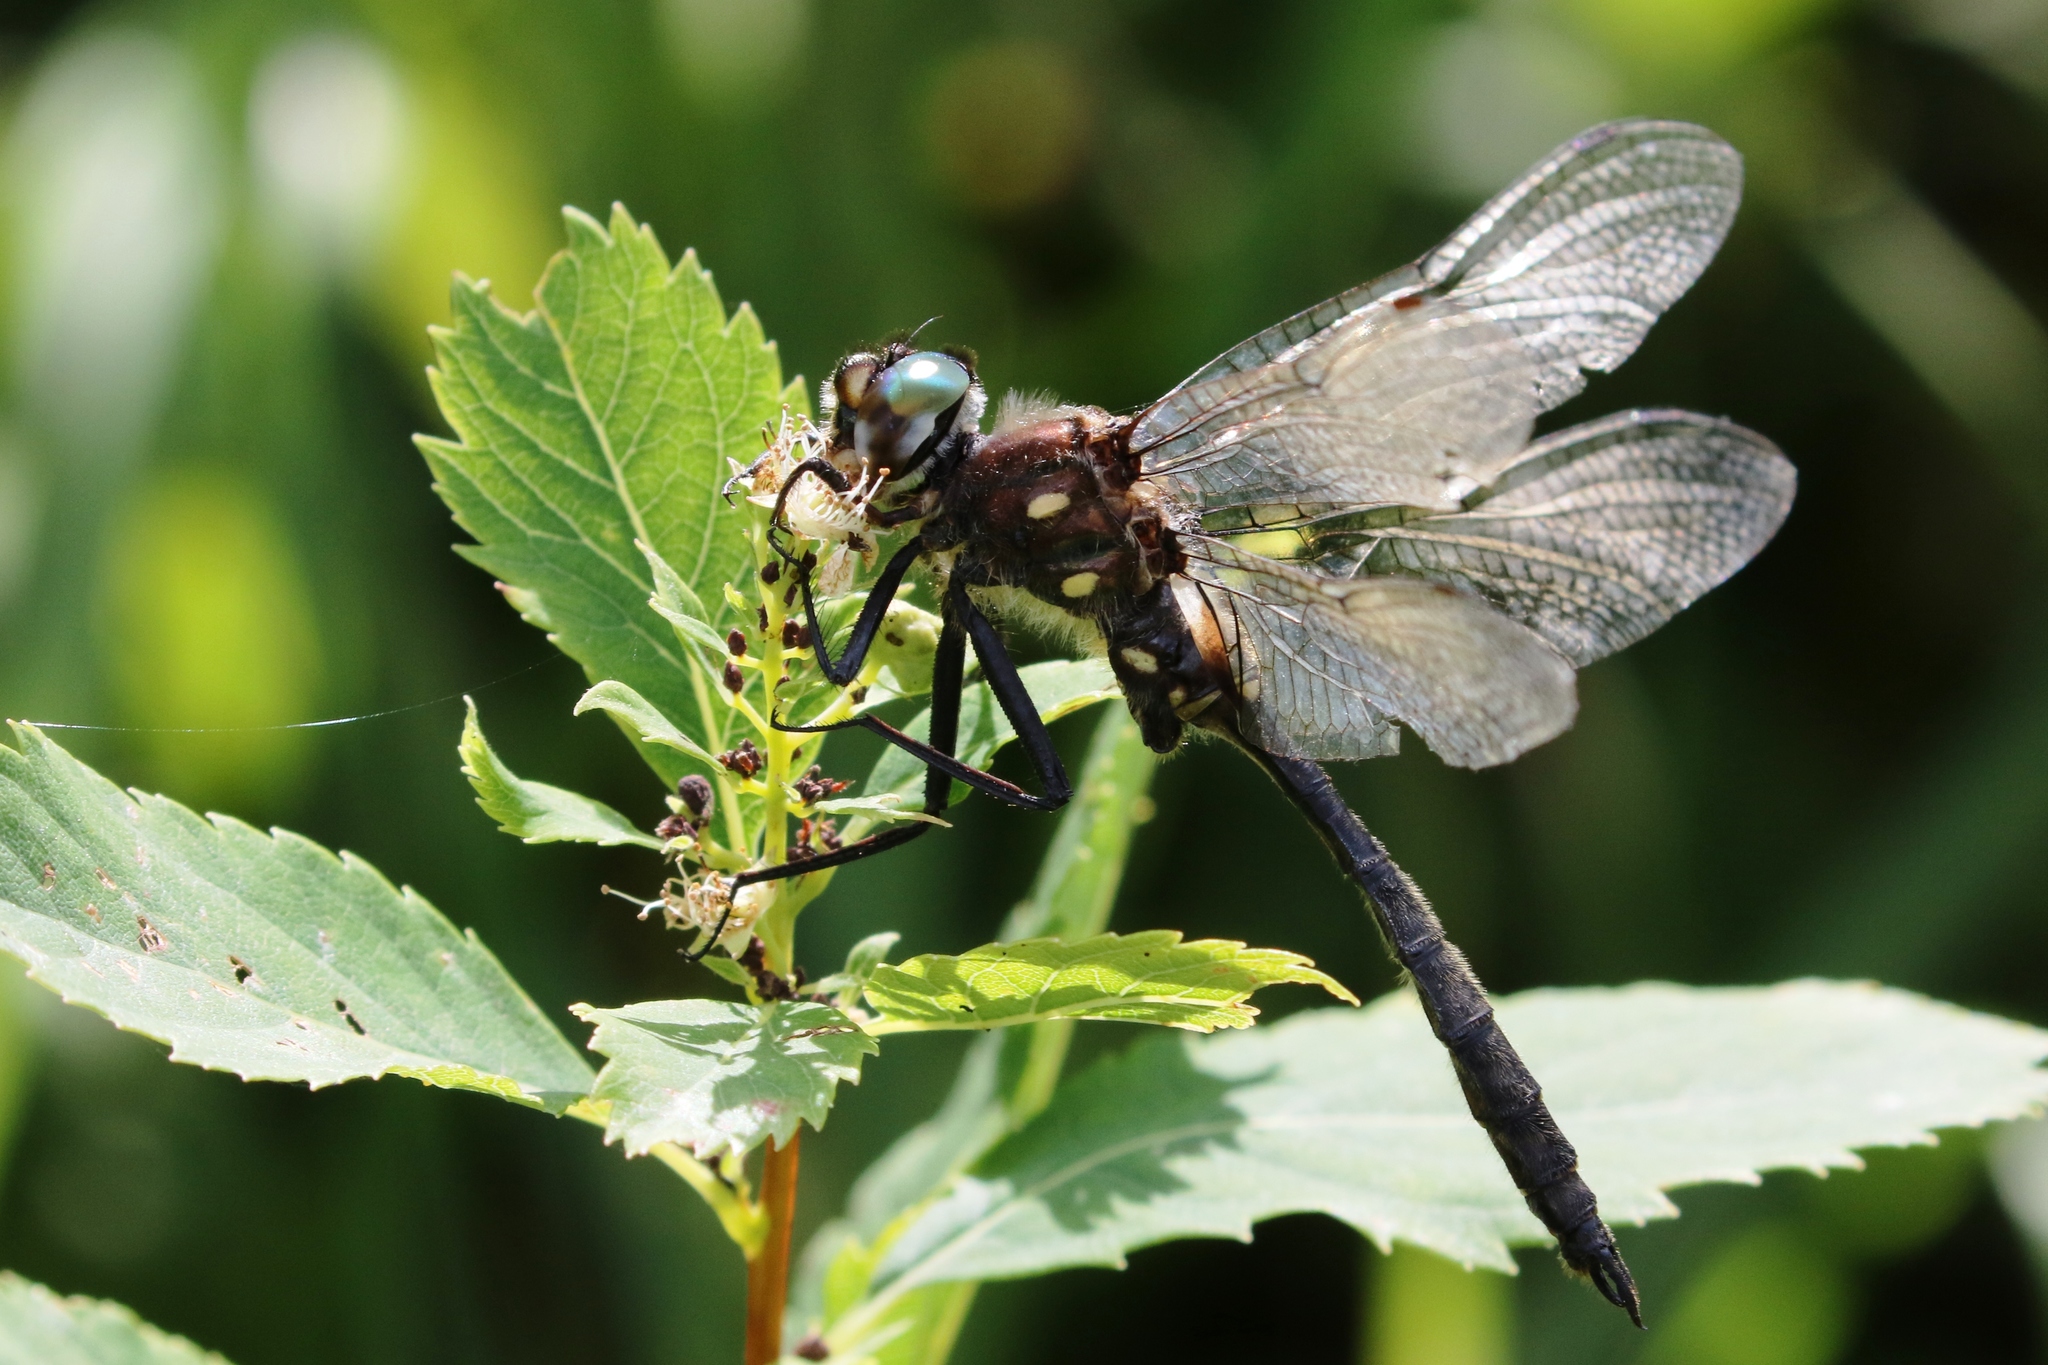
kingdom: Animalia
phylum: Arthropoda
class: Insecta
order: Odonata
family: Corduliidae
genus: Somatochlora
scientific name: Somatochlora minor
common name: Ocellated emerald
